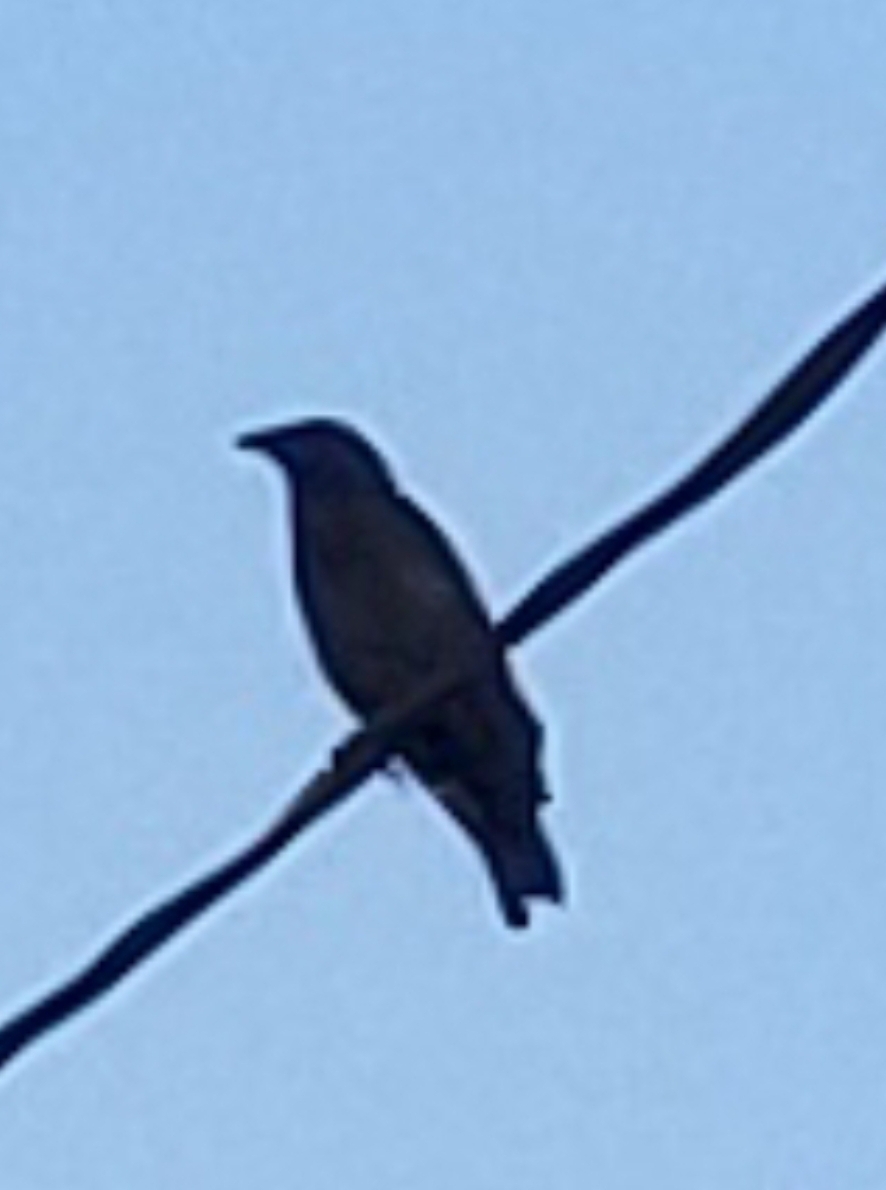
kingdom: Animalia
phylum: Chordata
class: Aves
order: Passeriformes
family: Corvidae
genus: Corvus
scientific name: Corvus brachyrhynchos
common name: American crow
